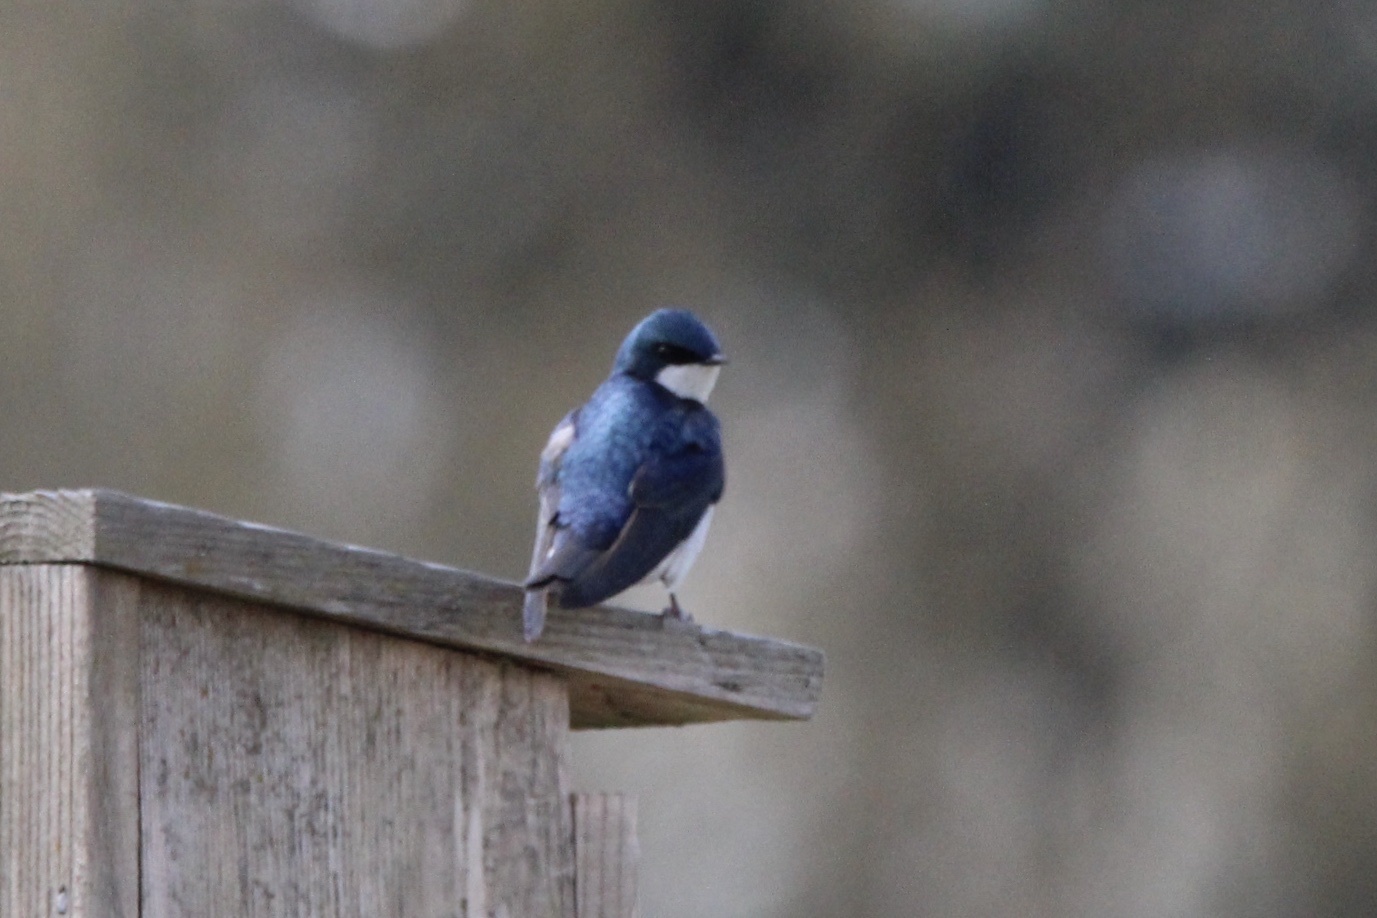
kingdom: Animalia
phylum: Chordata
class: Aves
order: Passeriformes
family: Hirundinidae
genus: Tachycineta
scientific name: Tachycineta bicolor
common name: Tree swallow
